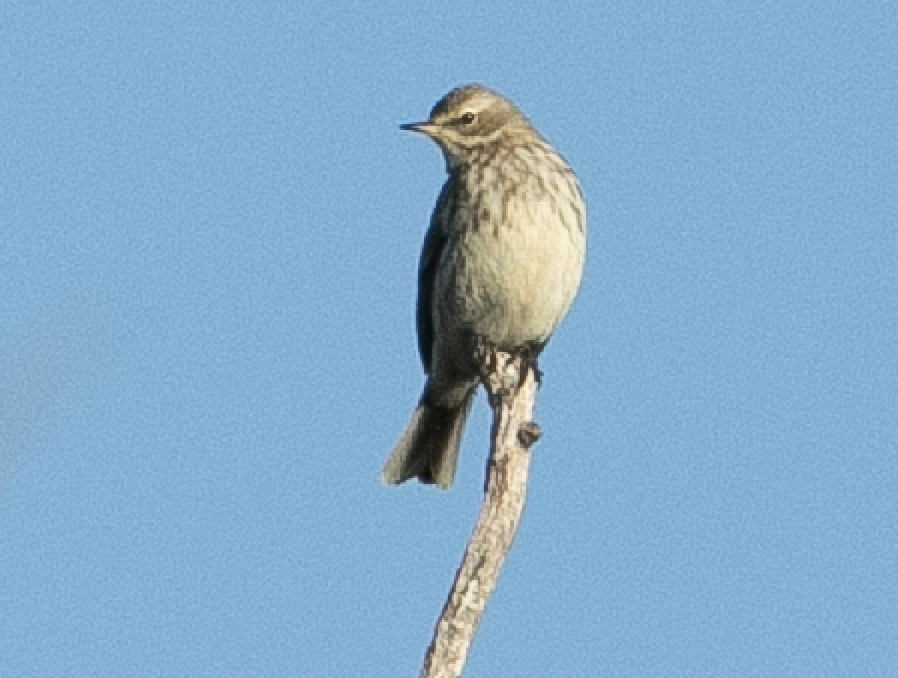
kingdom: Animalia
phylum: Chordata
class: Aves
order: Passeriformes
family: Motacillidae
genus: Anthus
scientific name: Anthus spinoletta
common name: Water pipit
